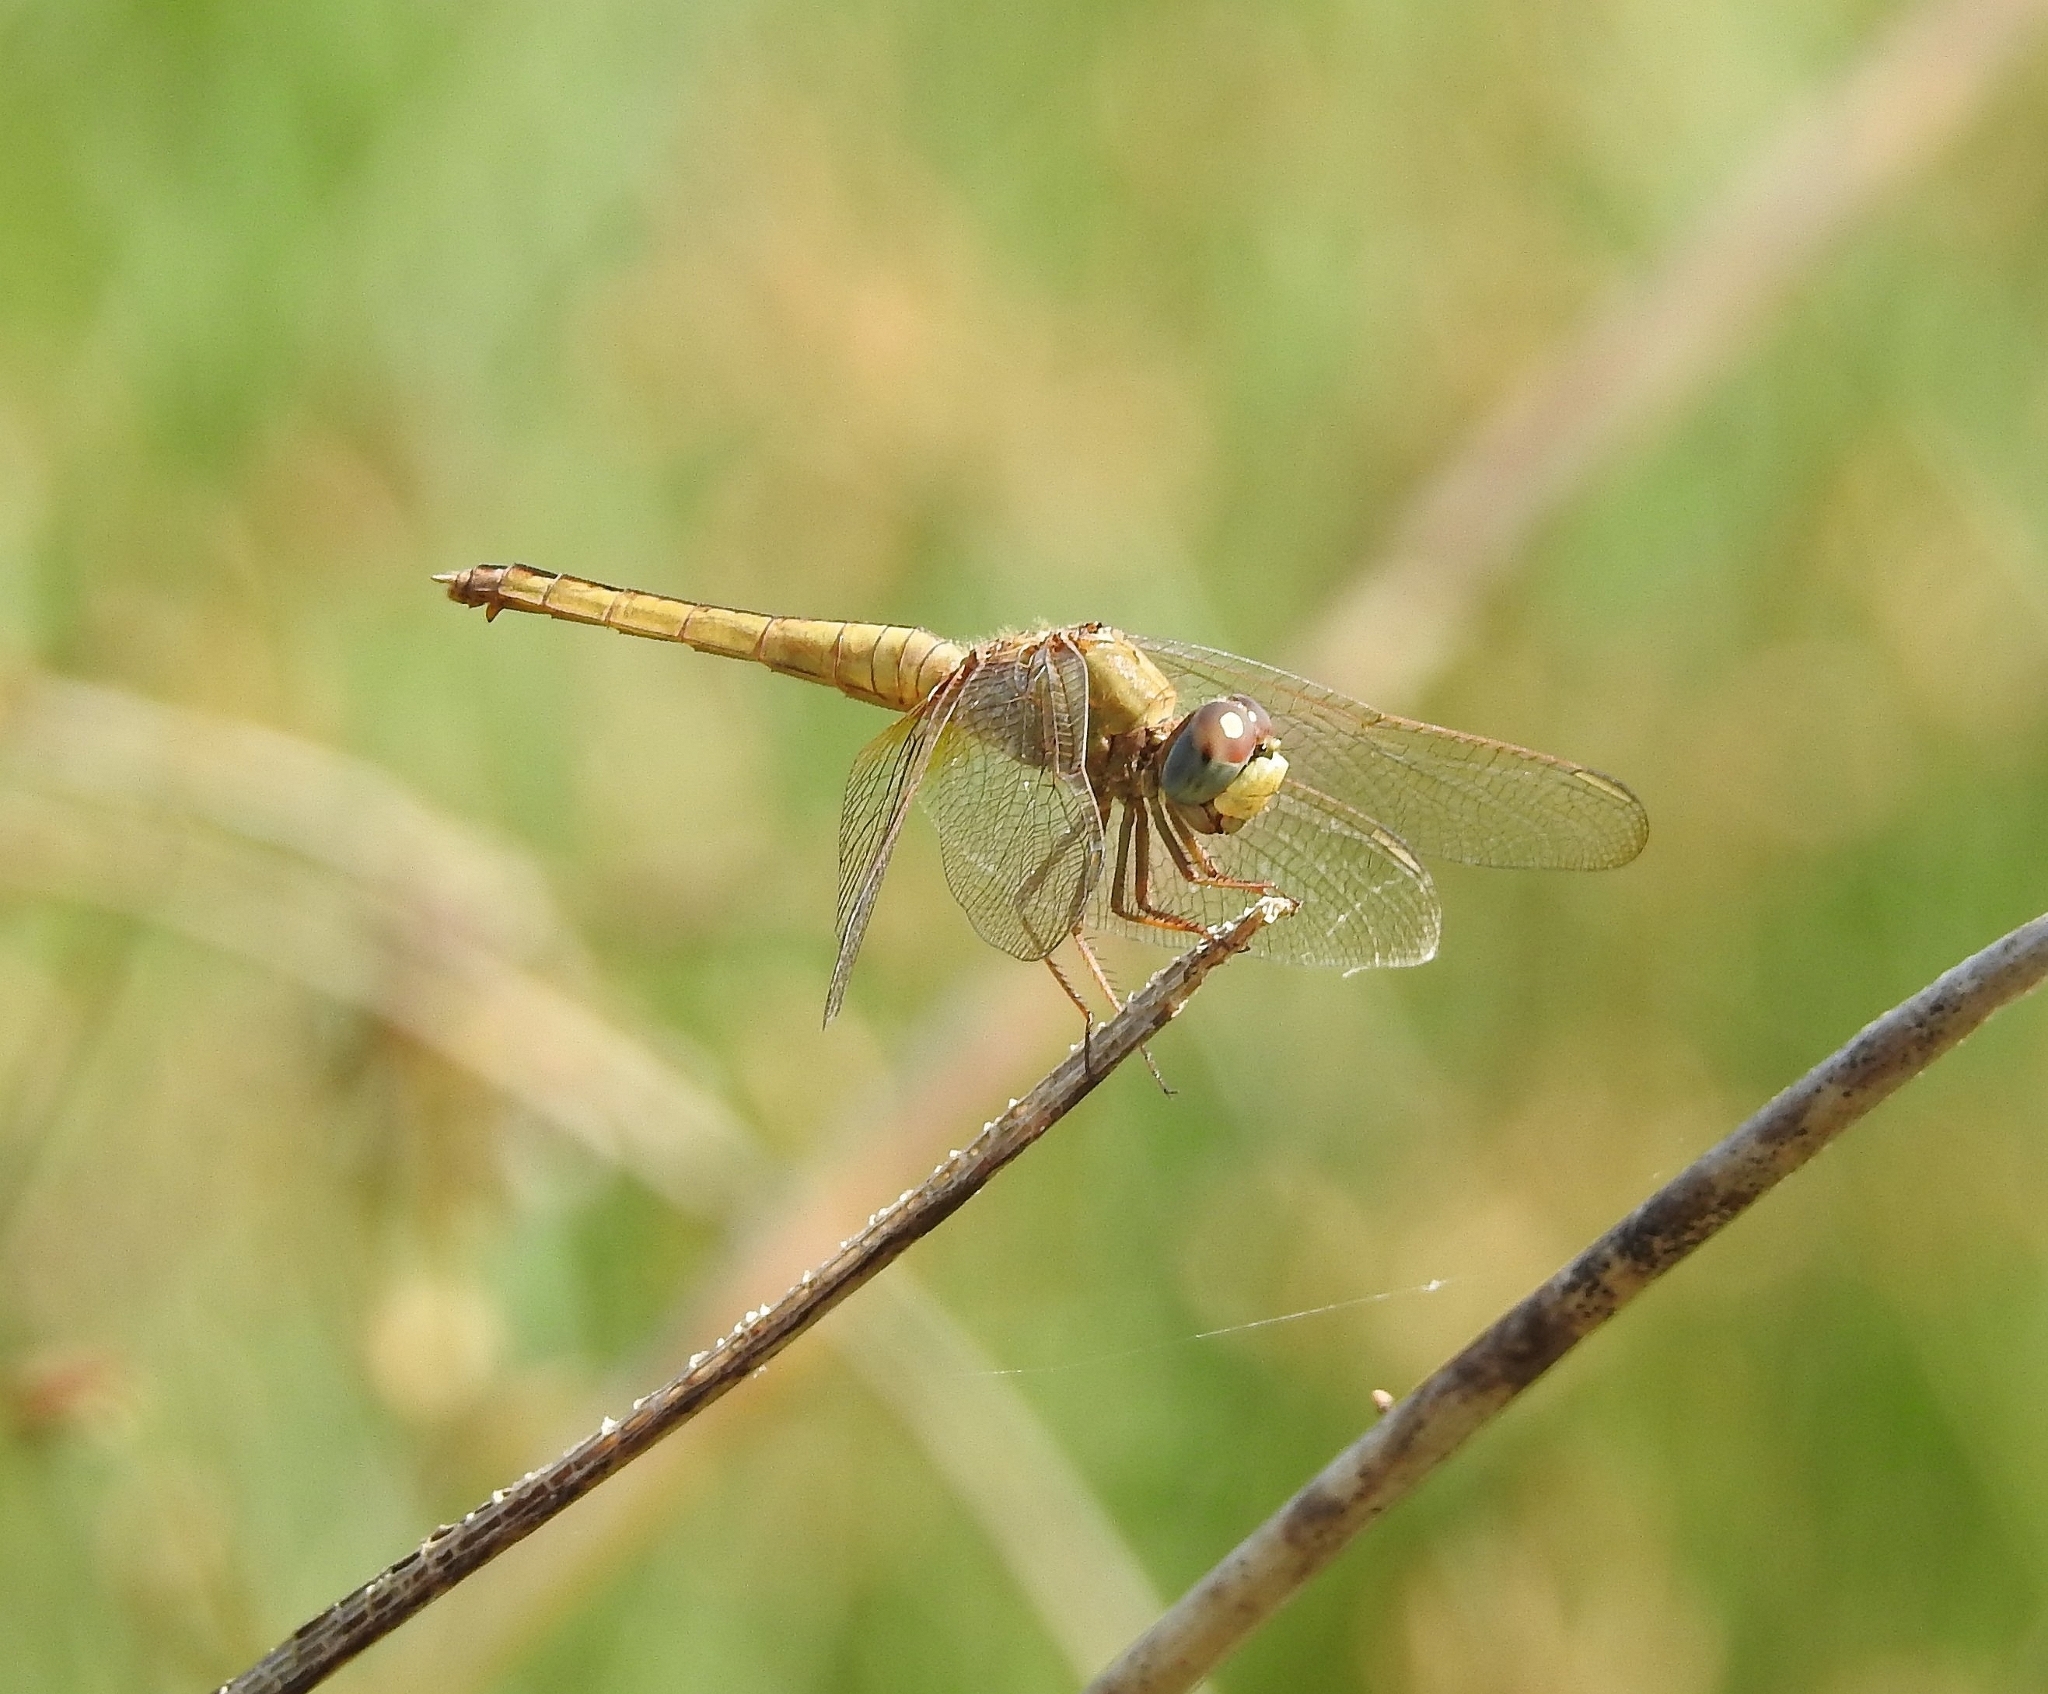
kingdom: Animalia
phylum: Arthropoda
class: Insecta
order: Odonata
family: Libellulidae
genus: Crocothemis
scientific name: Crocothemis servilia
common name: Scarlet skimmer
